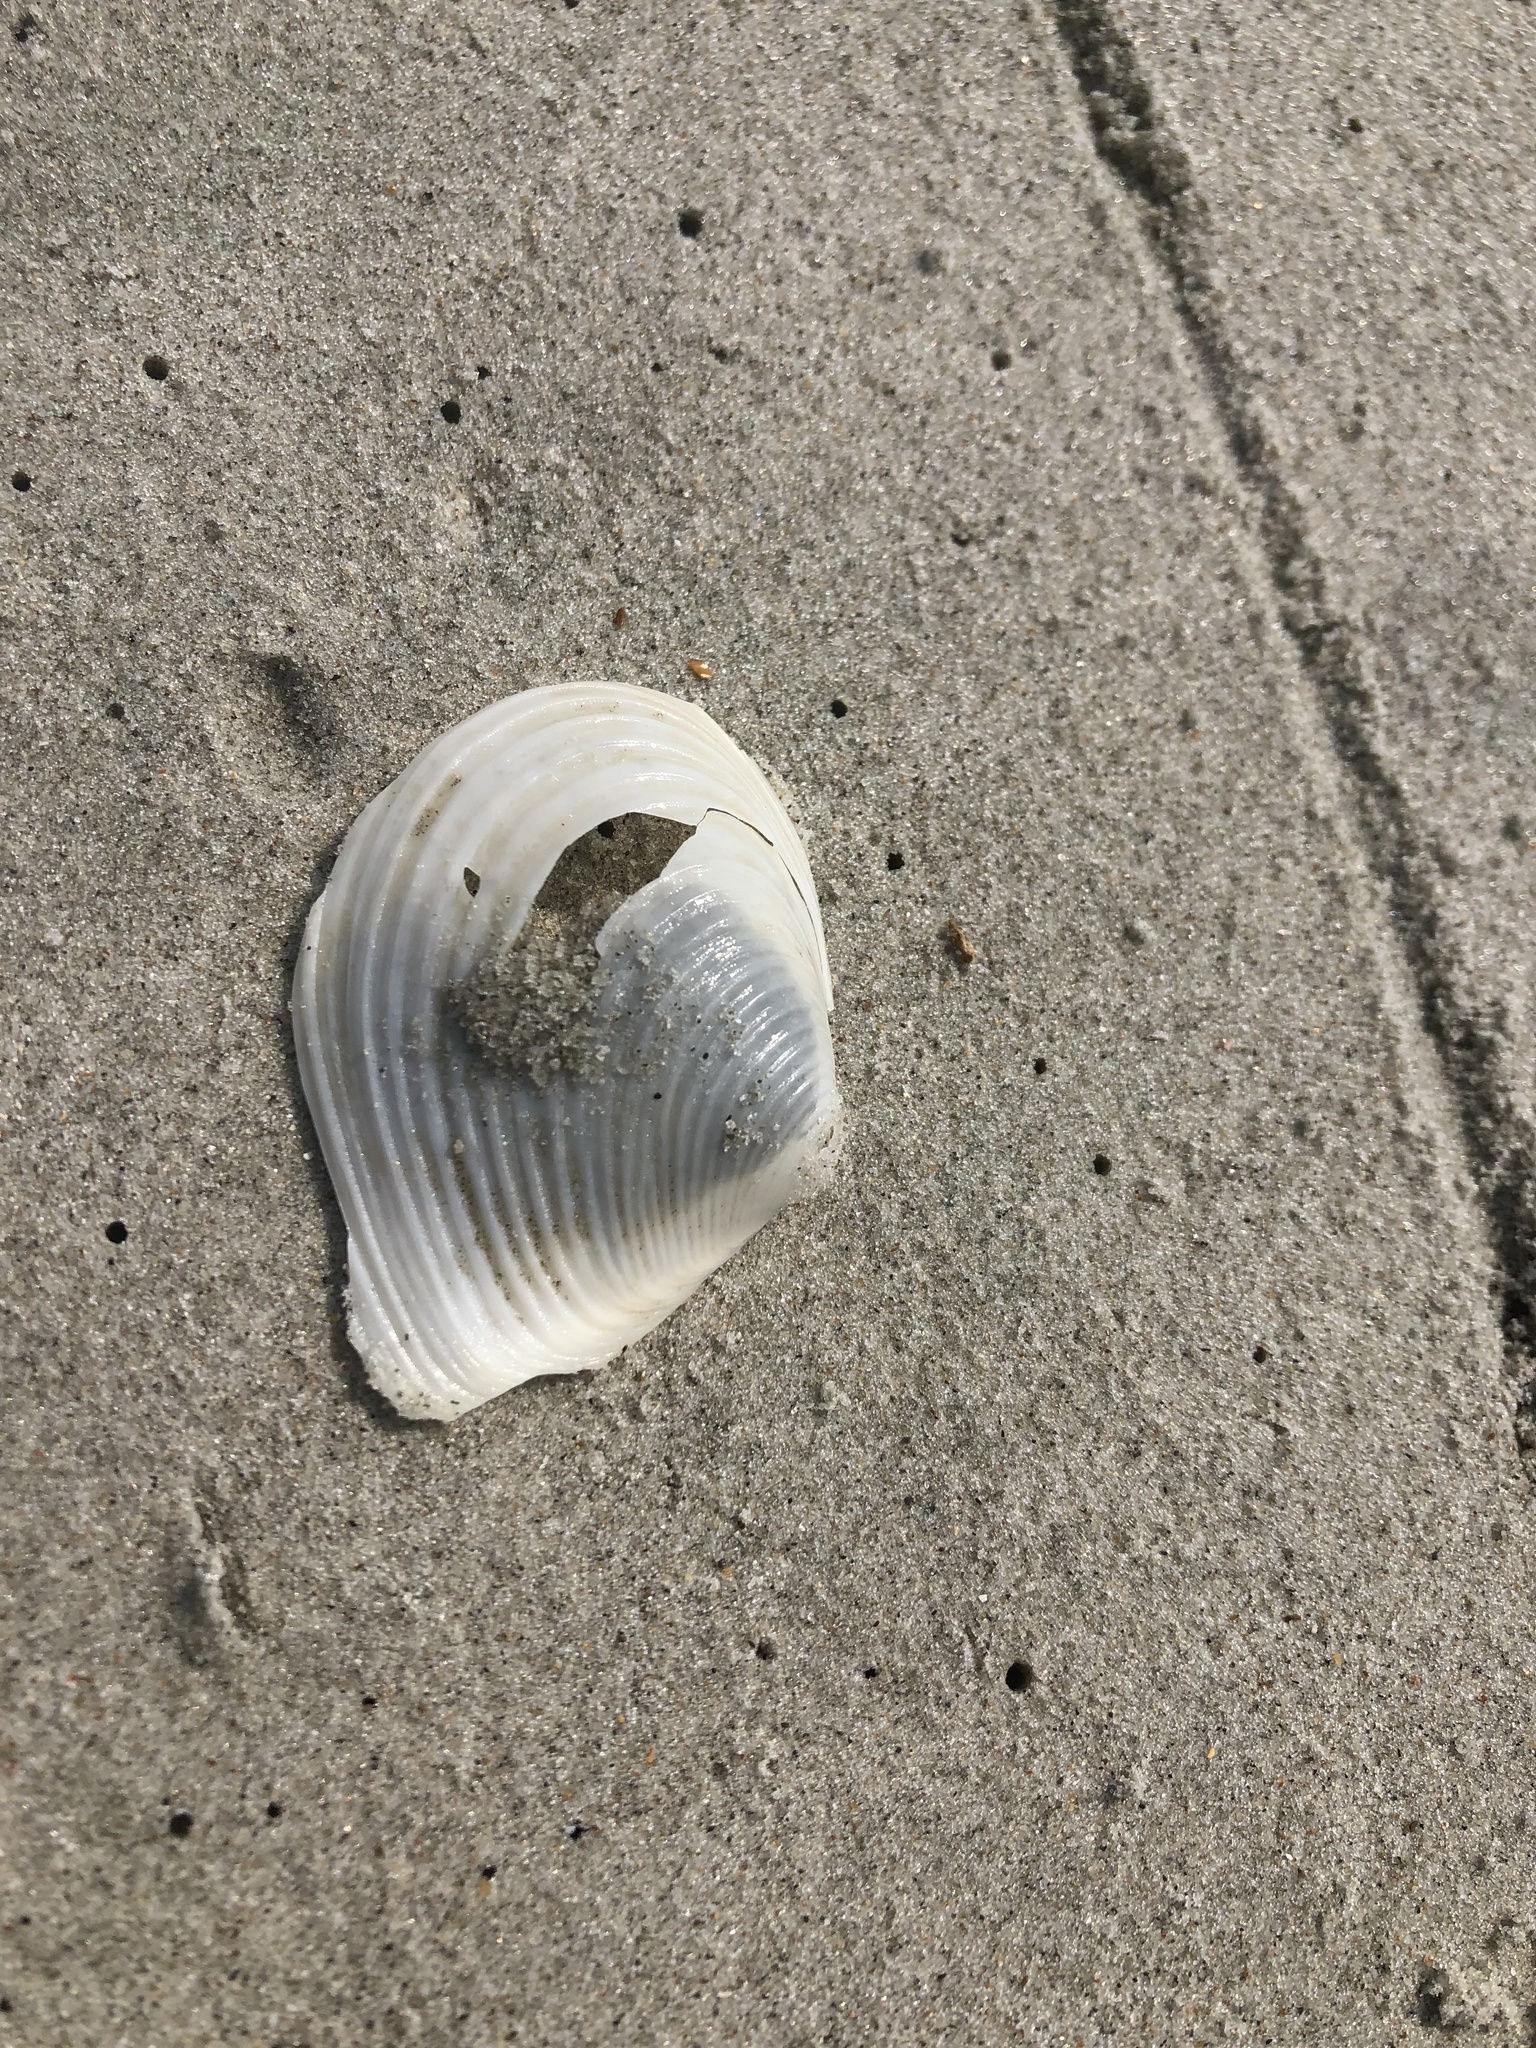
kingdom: Animalia
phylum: Mollusca
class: Bivalvia
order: Venerida
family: Anatinellidae
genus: Raeta
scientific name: Raeta plicatella
